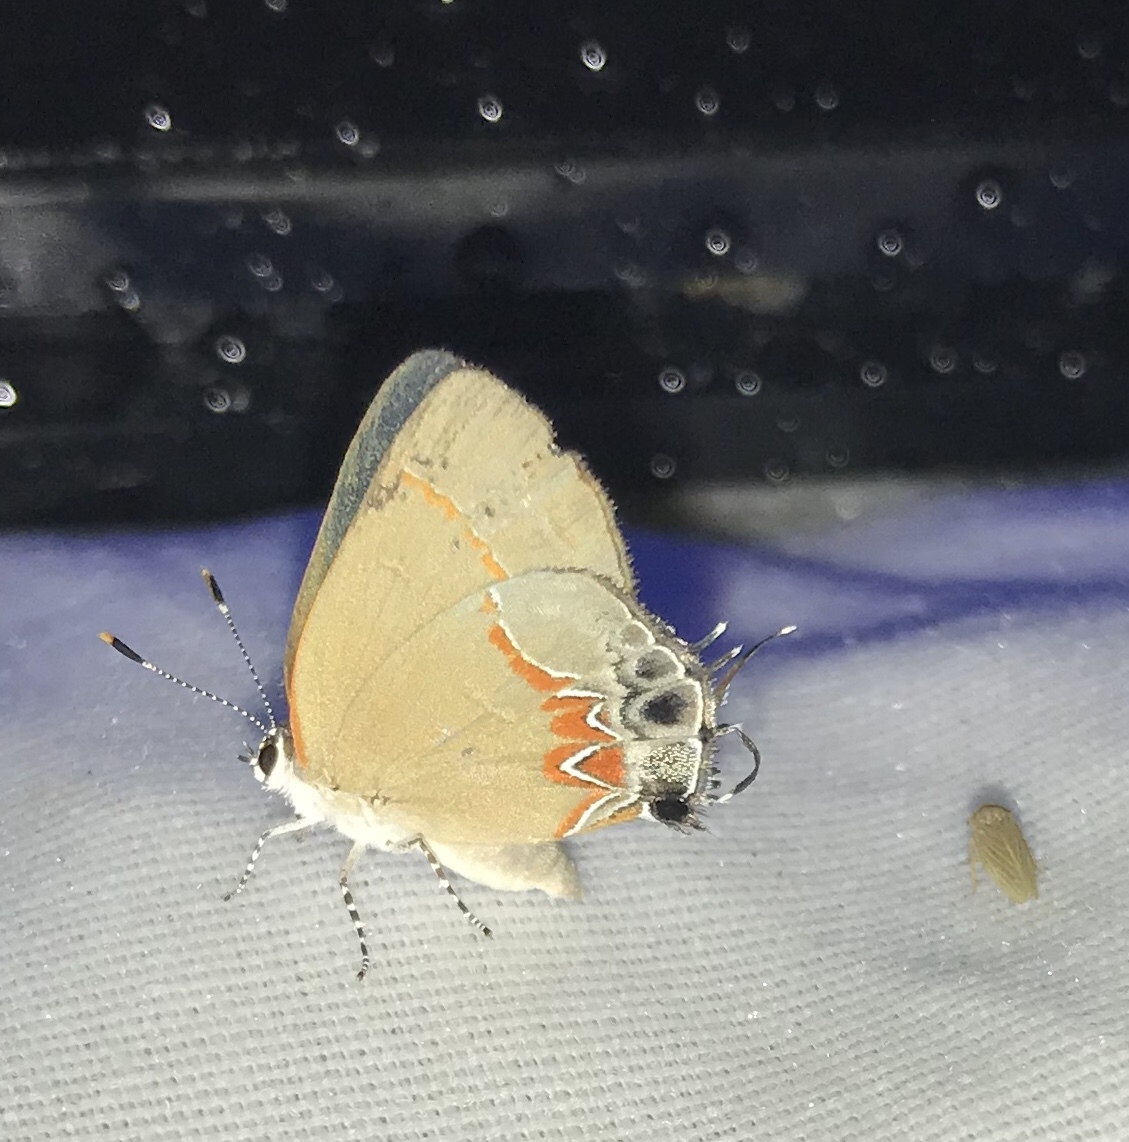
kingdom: Animalia
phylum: Arthropoda
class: Insecta
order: Lepidoptera
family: Lycaenidae
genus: Calycopis
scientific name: Calycopis cecrops
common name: Red-banded hairstreak
